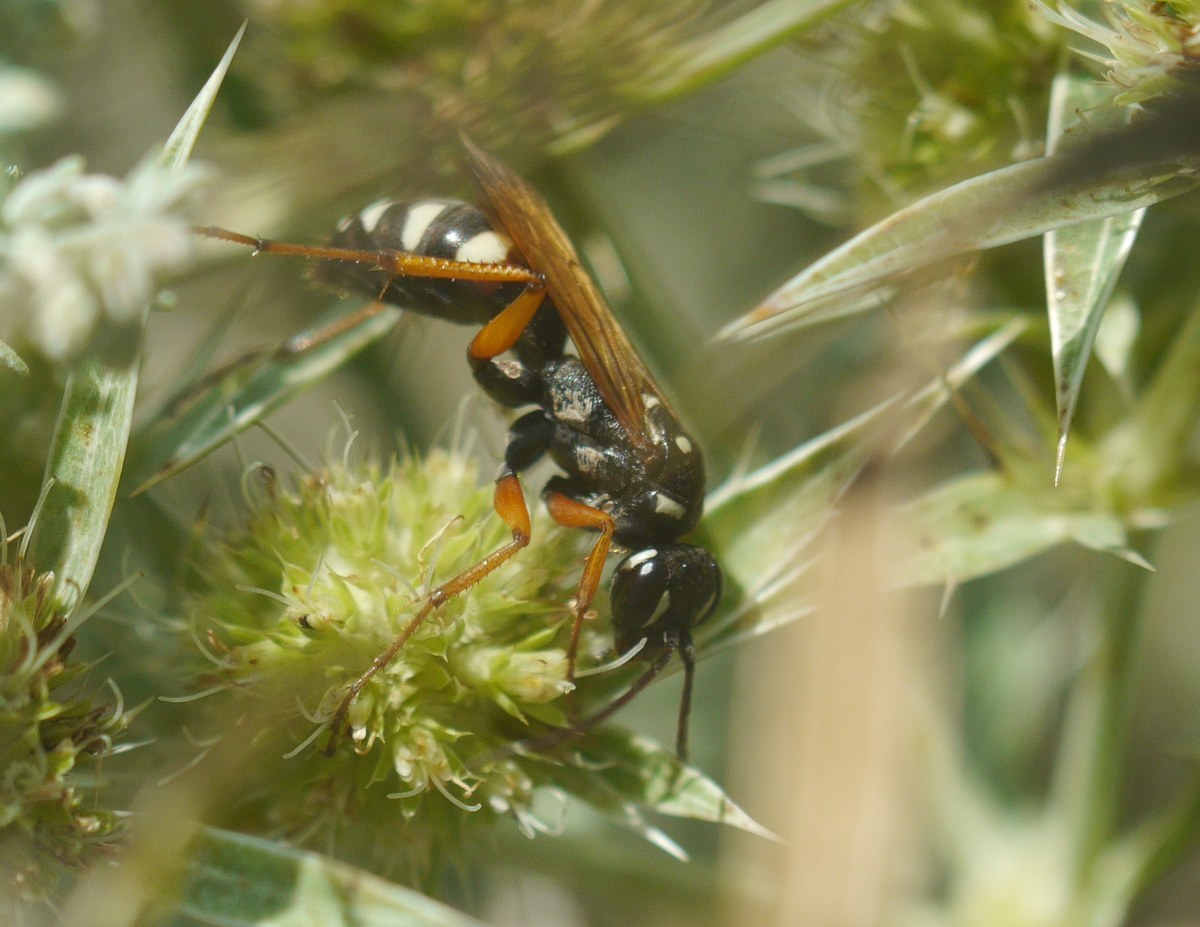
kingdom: Animalia
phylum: Arthropoda
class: Insecta
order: Hymenoptera
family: Pompilidae
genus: Cryptocheilus
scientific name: Cryptocheilus variabilis
